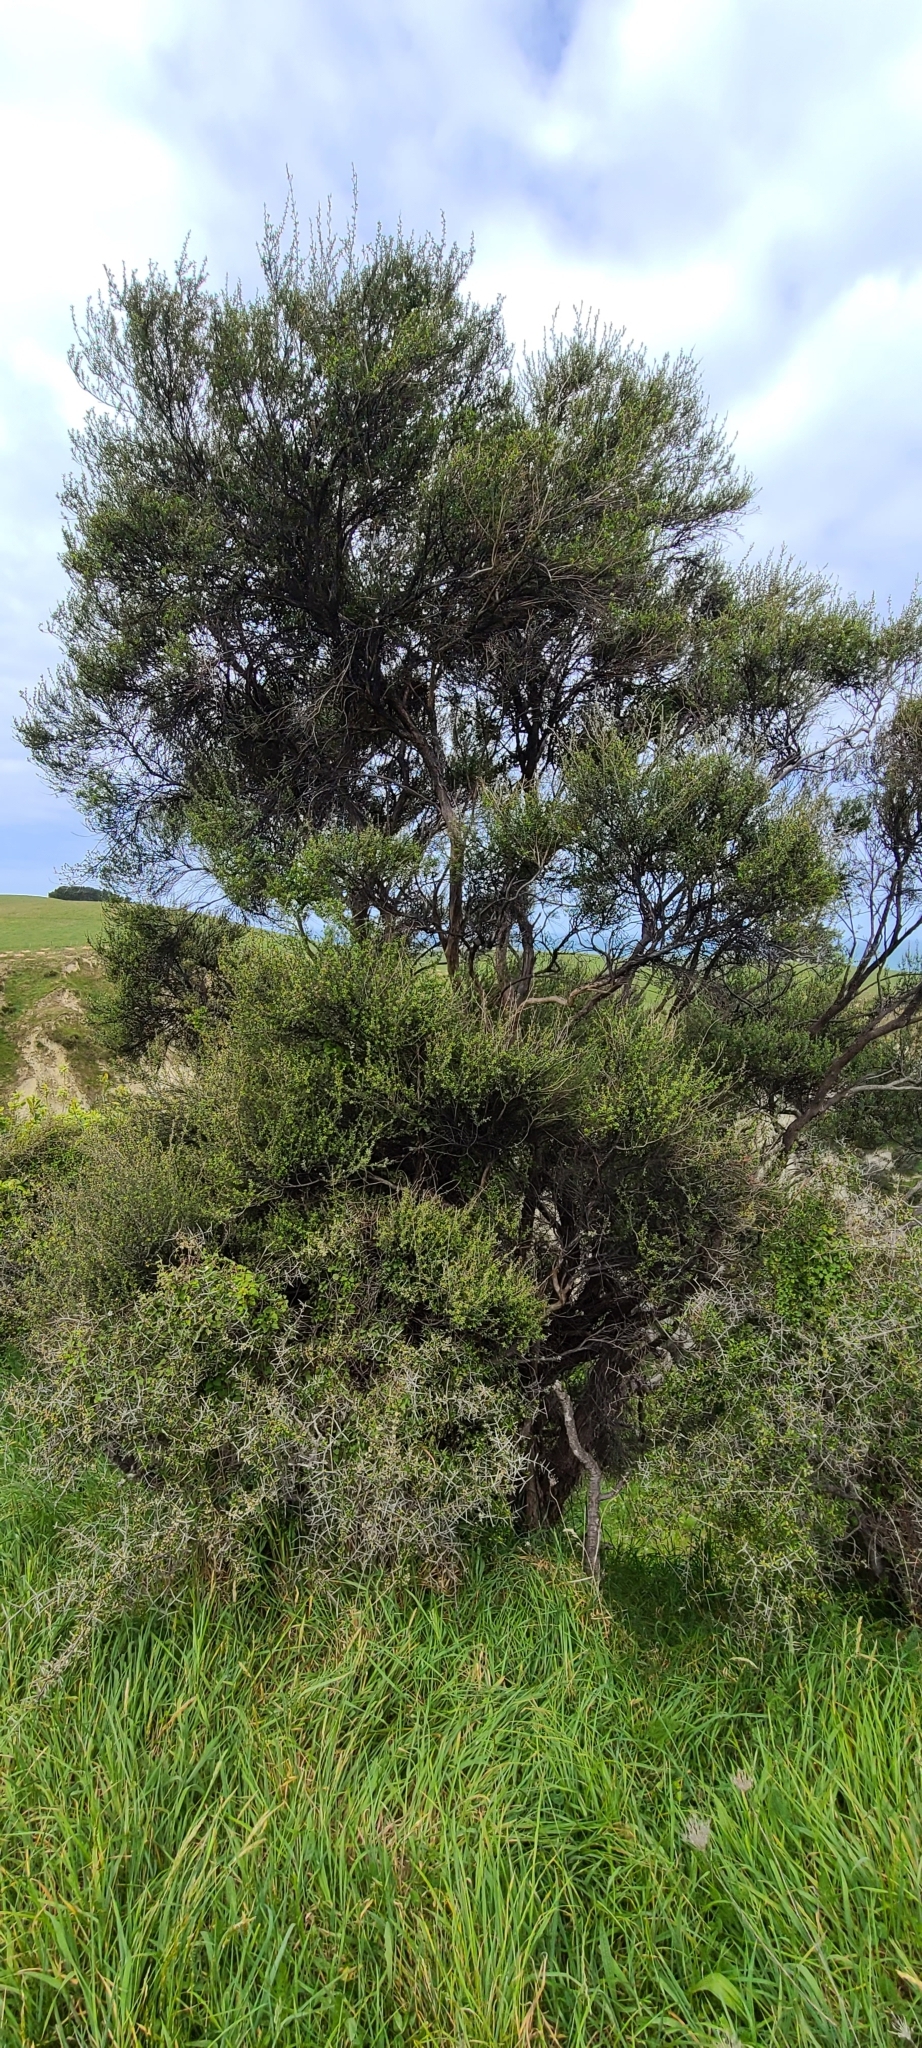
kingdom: Plantae
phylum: Tracheophyta
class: Magnoliopsida
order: Myrtales
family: Myrtaceae
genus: Leptospermum
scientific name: Leptospermum scoparium
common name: Broom tea-tree
